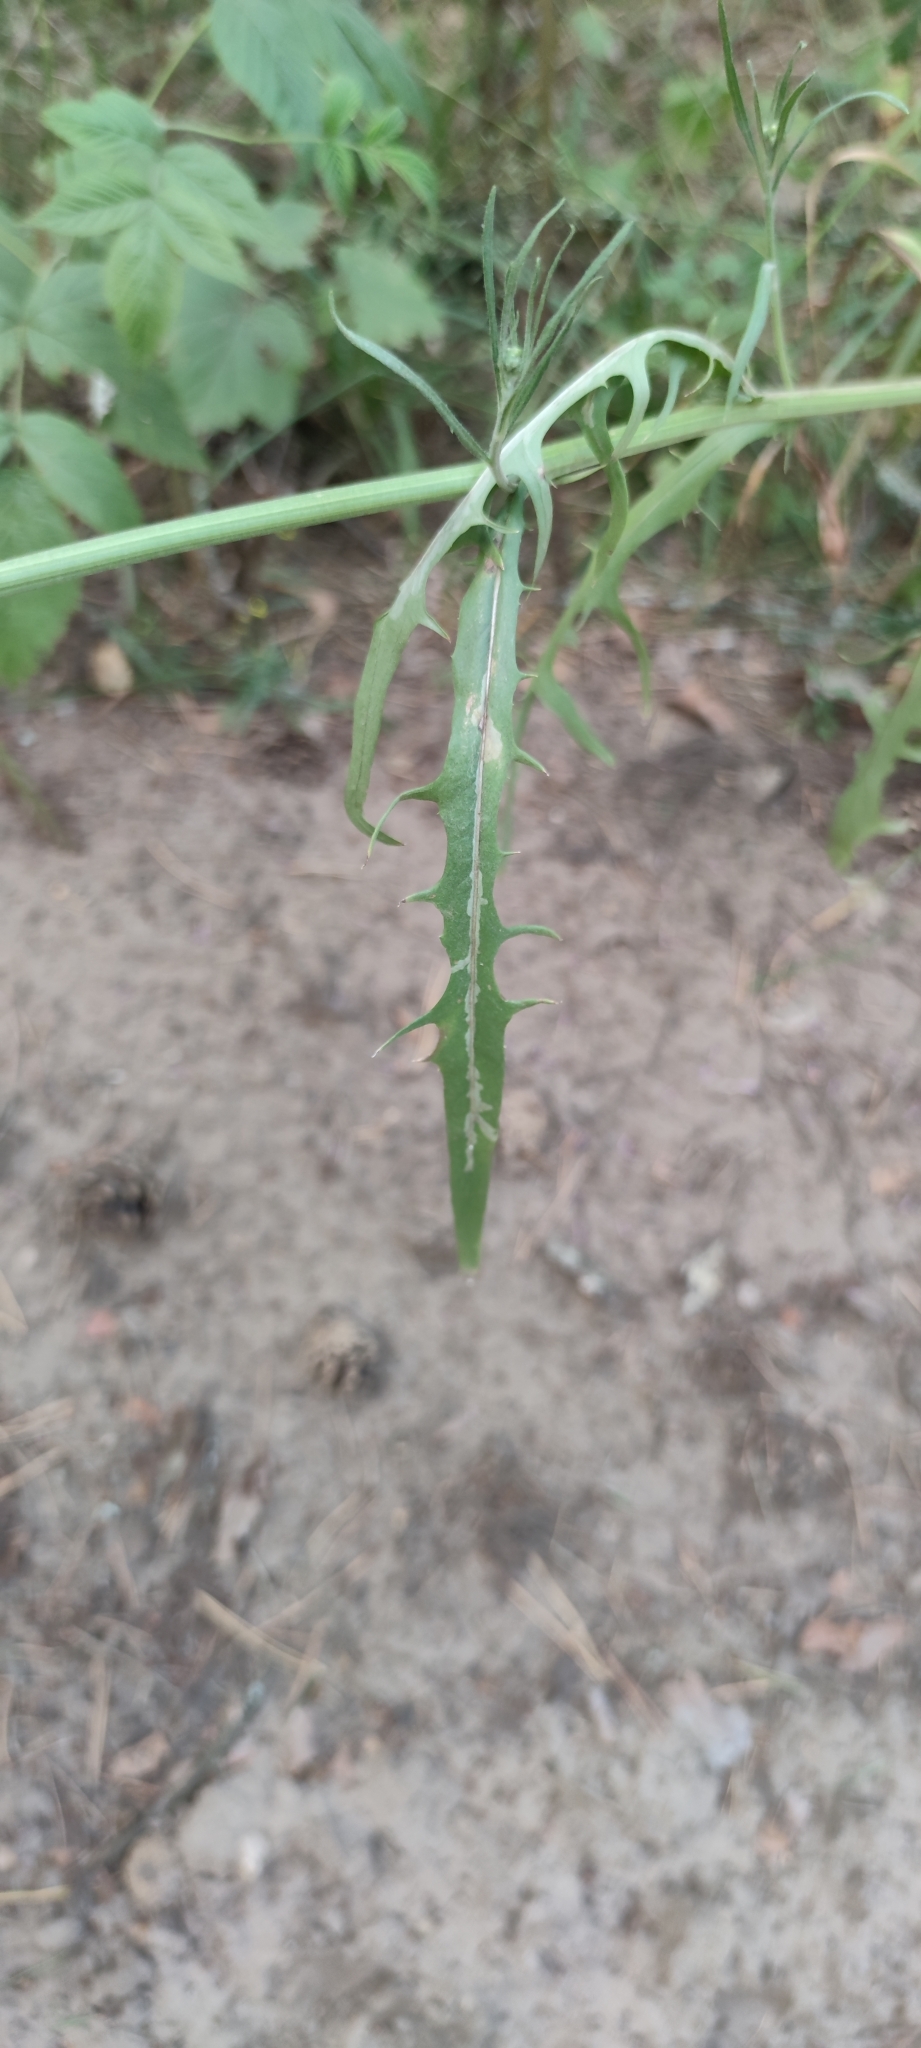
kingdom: Plantae
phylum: Tracheophyta
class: Magnoliopsida
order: Asterales
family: Asteraceae
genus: Crepis
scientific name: Crepis tectorum
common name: Narrow-leaved hawk's-beard
